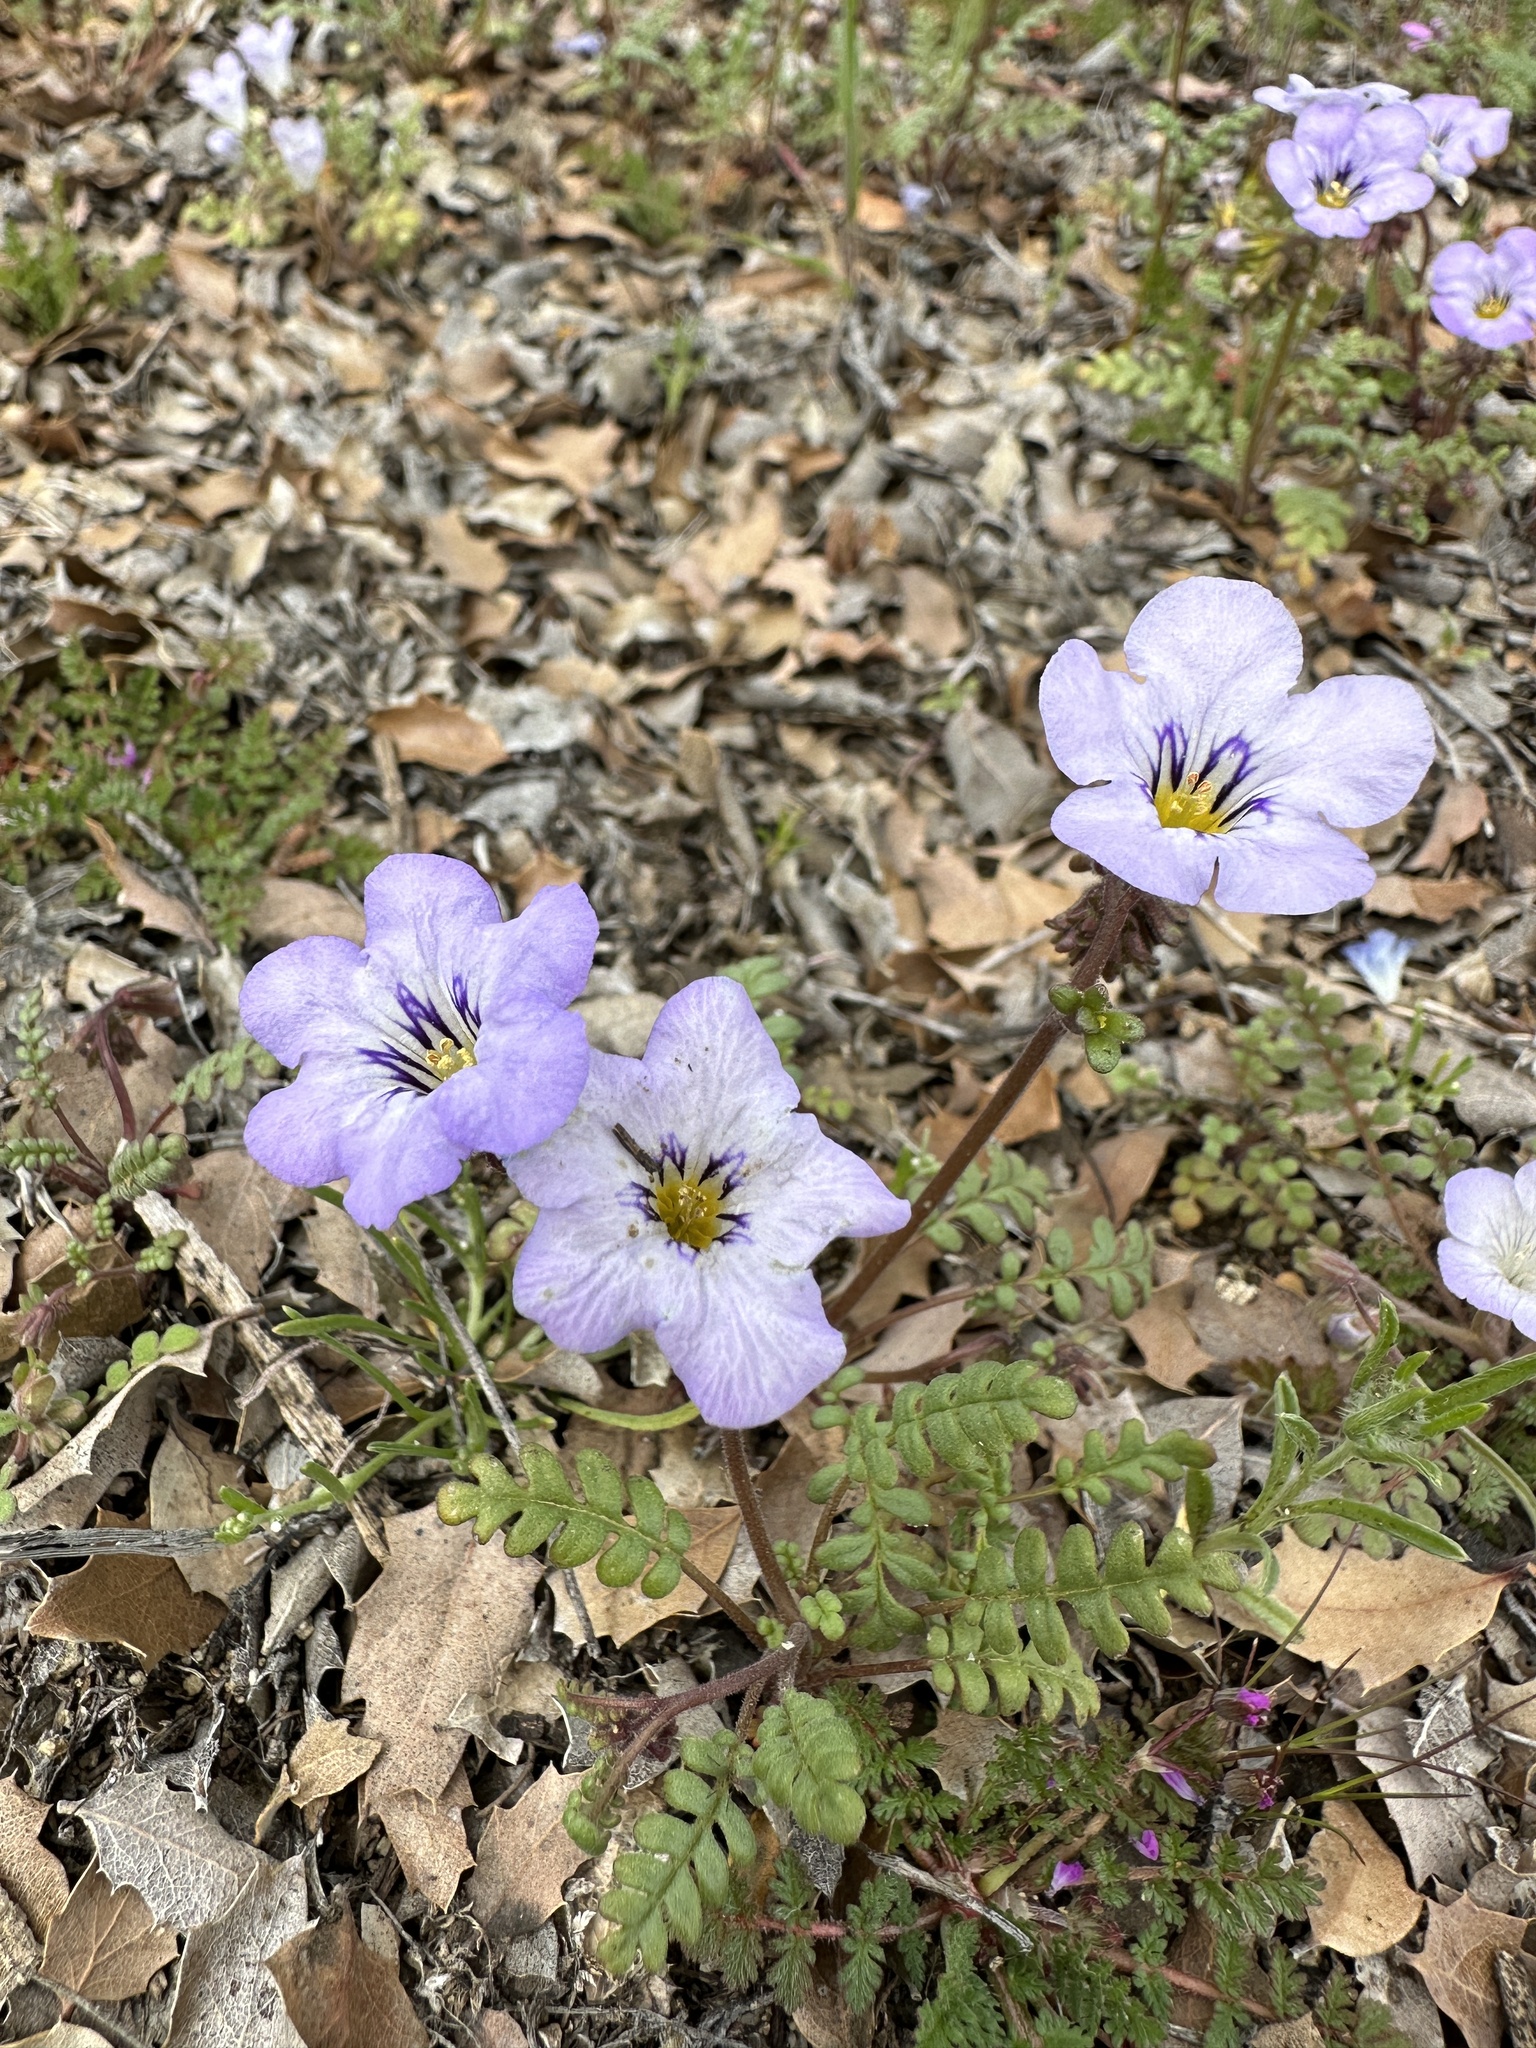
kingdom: Plantae
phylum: Tracheophyta
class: Magnoliopsida
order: Boraginales
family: Hydrophyllaceae
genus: Phacelia
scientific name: Phacelia fremontii
